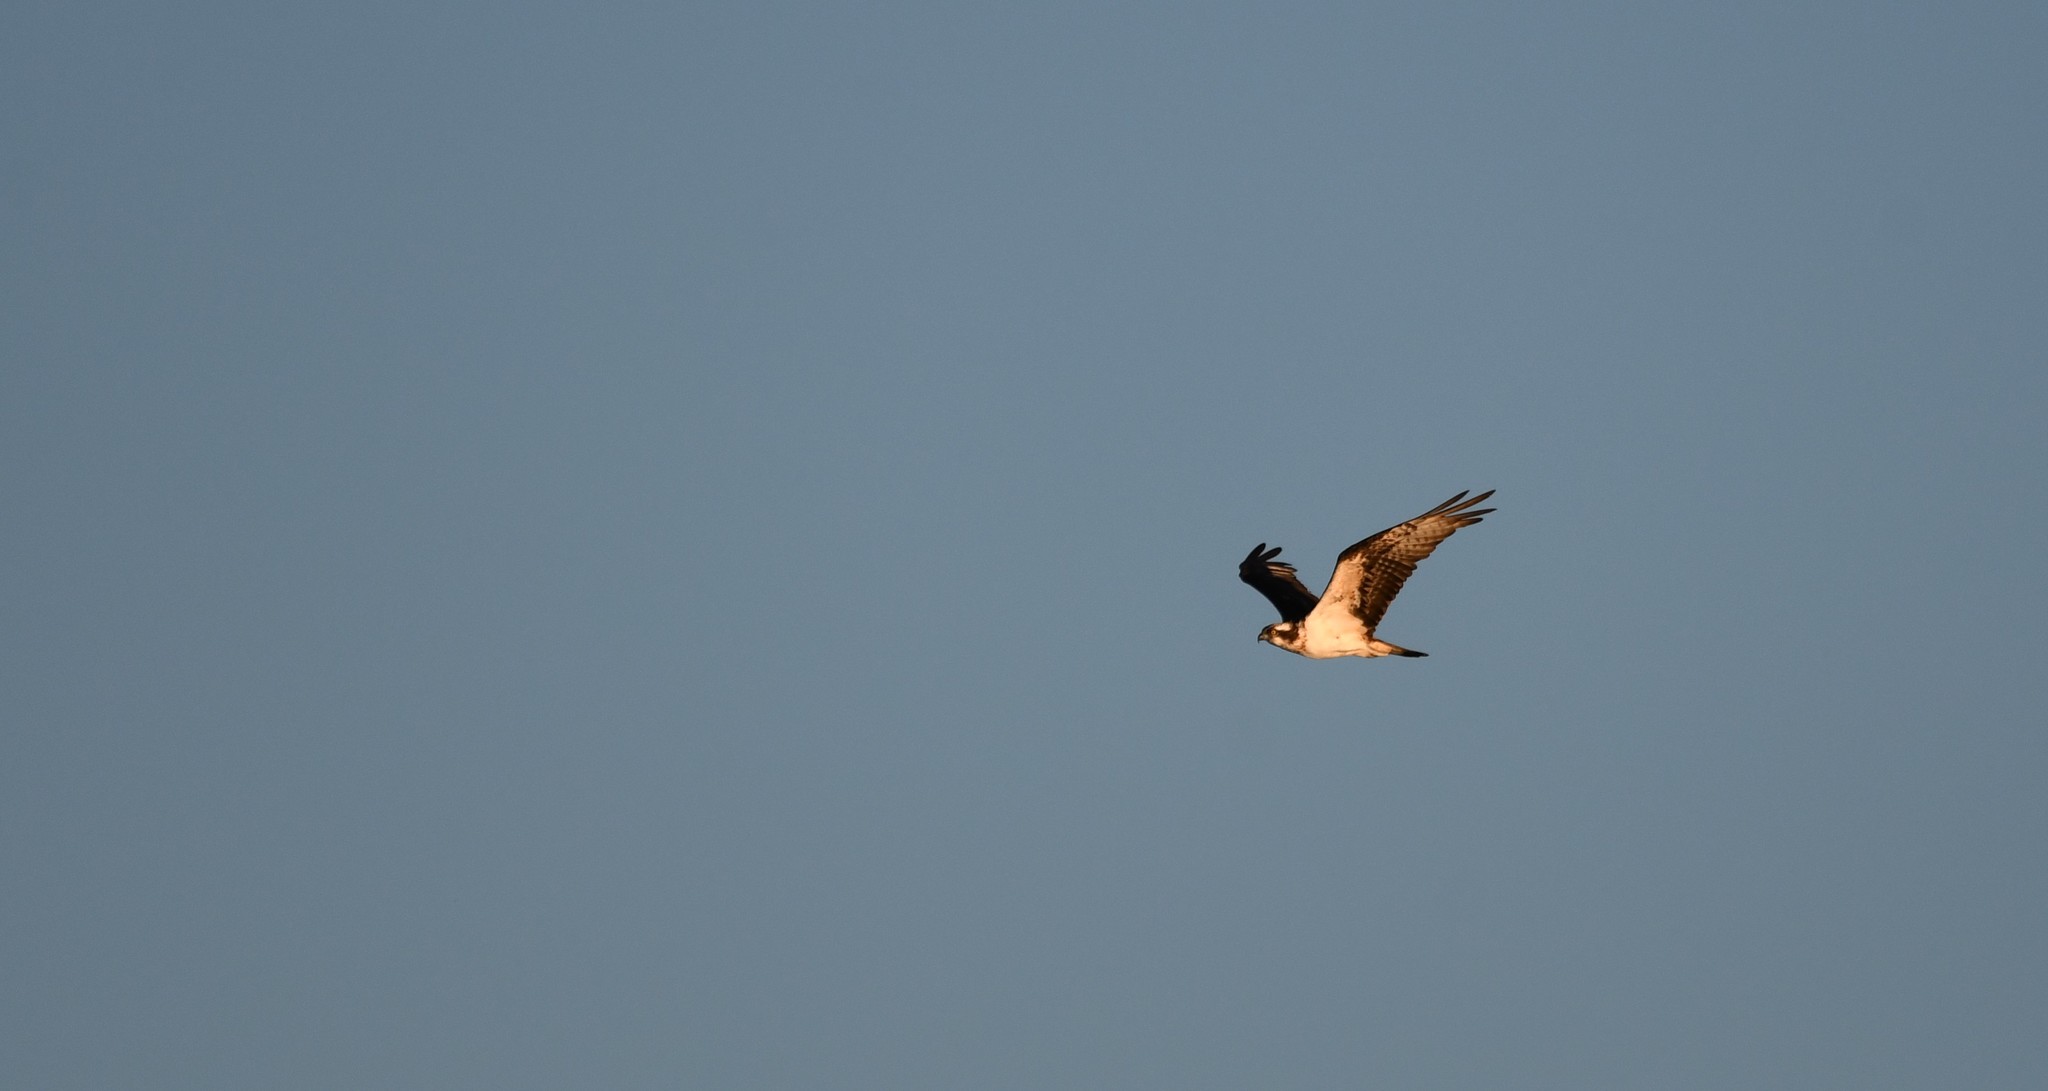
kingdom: Animalia
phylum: Chordata
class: Aves
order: Accipitriformes
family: Pandionidae
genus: Pandion
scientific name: Pandion haliaetus
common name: Osprey
